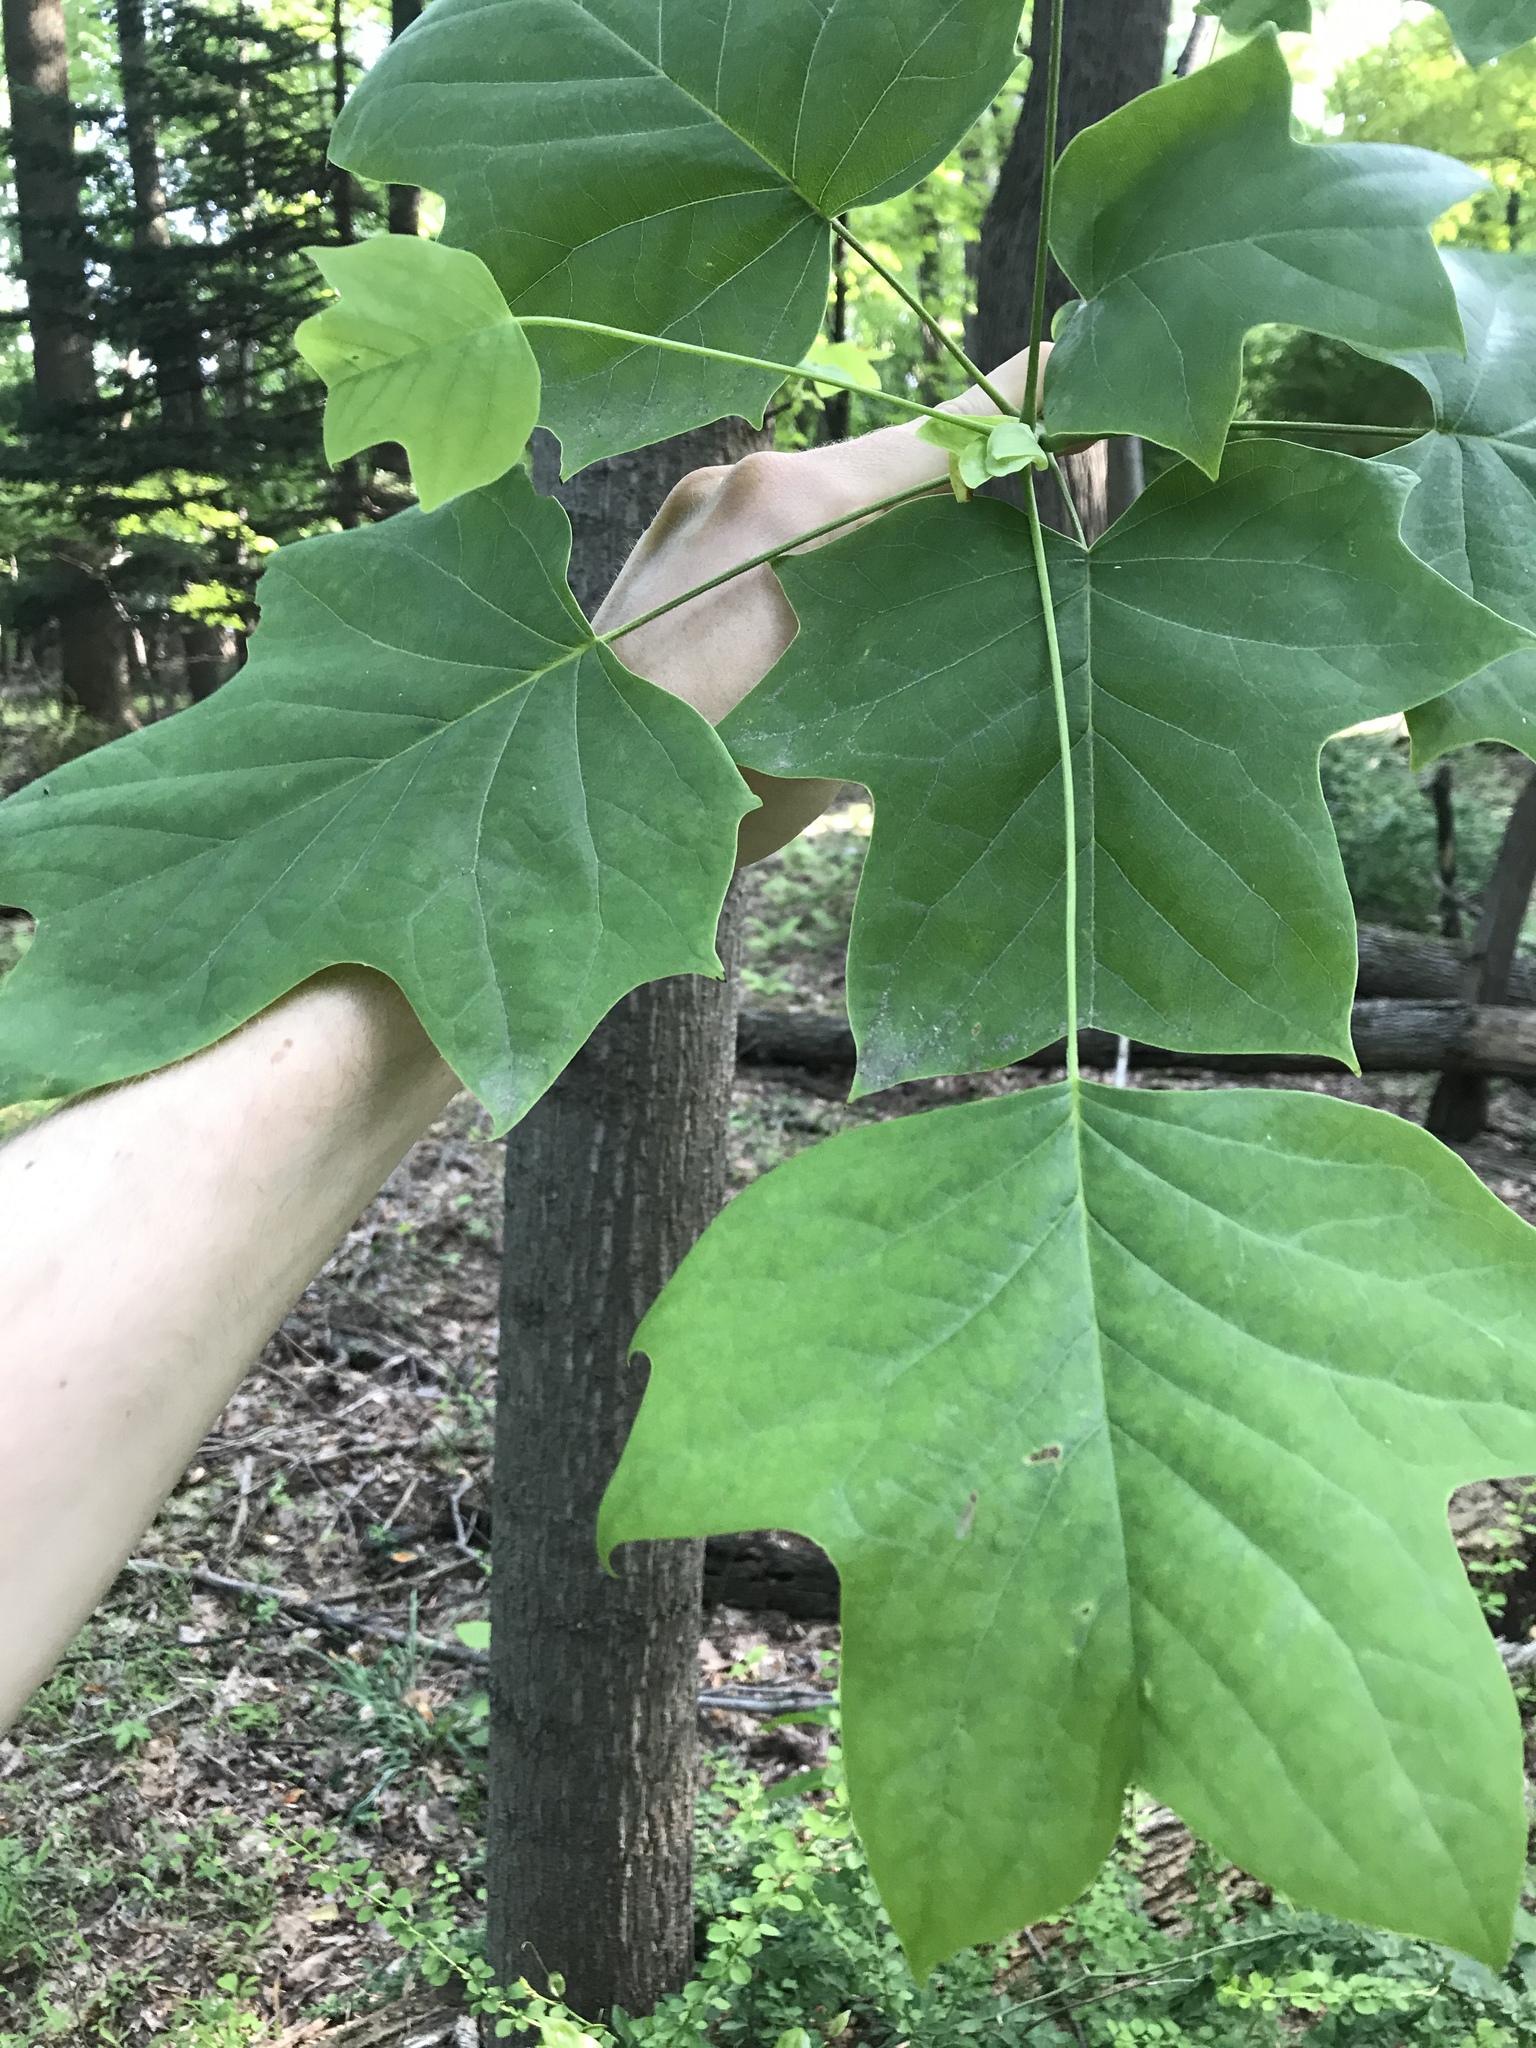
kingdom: Plantae
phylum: Tracheophyta
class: Magnoliopsida
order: Magnoliales
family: Magnoliaceae
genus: Liriodendron
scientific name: Liriodendron tulipifera
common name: Tulip tree
